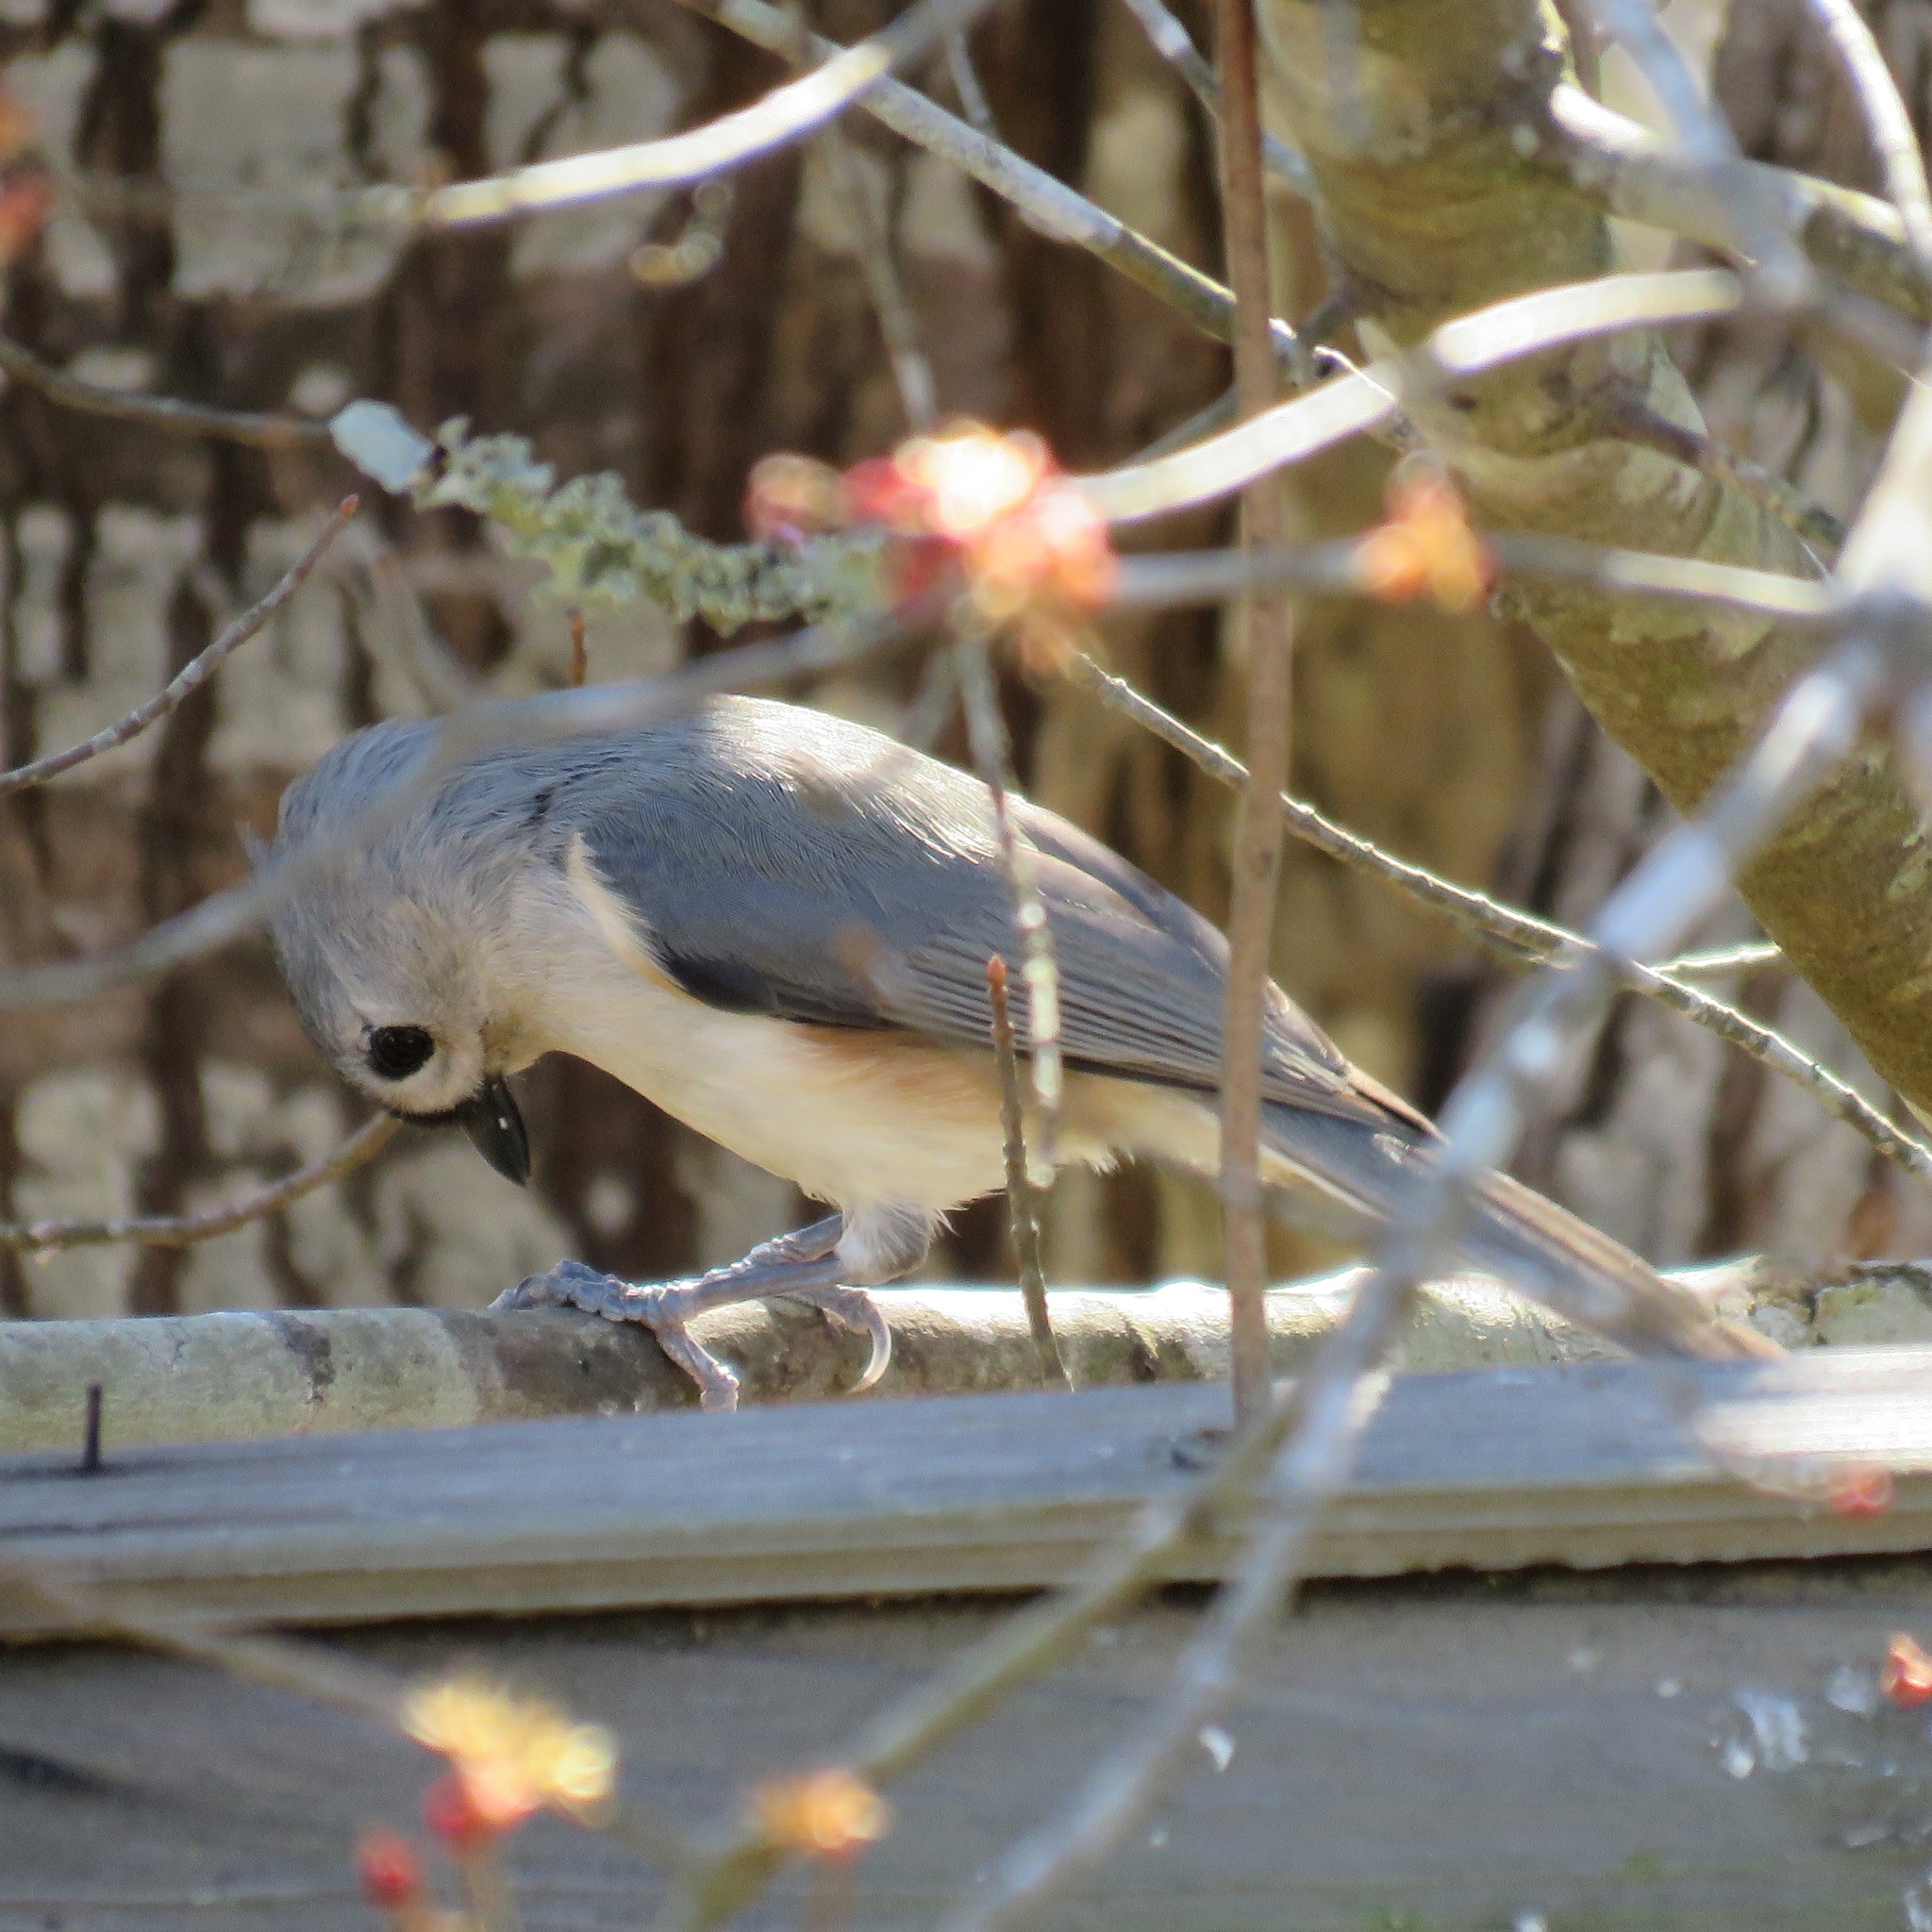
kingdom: Animalia
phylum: Chordata
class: Aves
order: Passeriformes
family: Paridae
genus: Baeolophus
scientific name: Baeolophus bicolor
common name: Tufted titmouse
